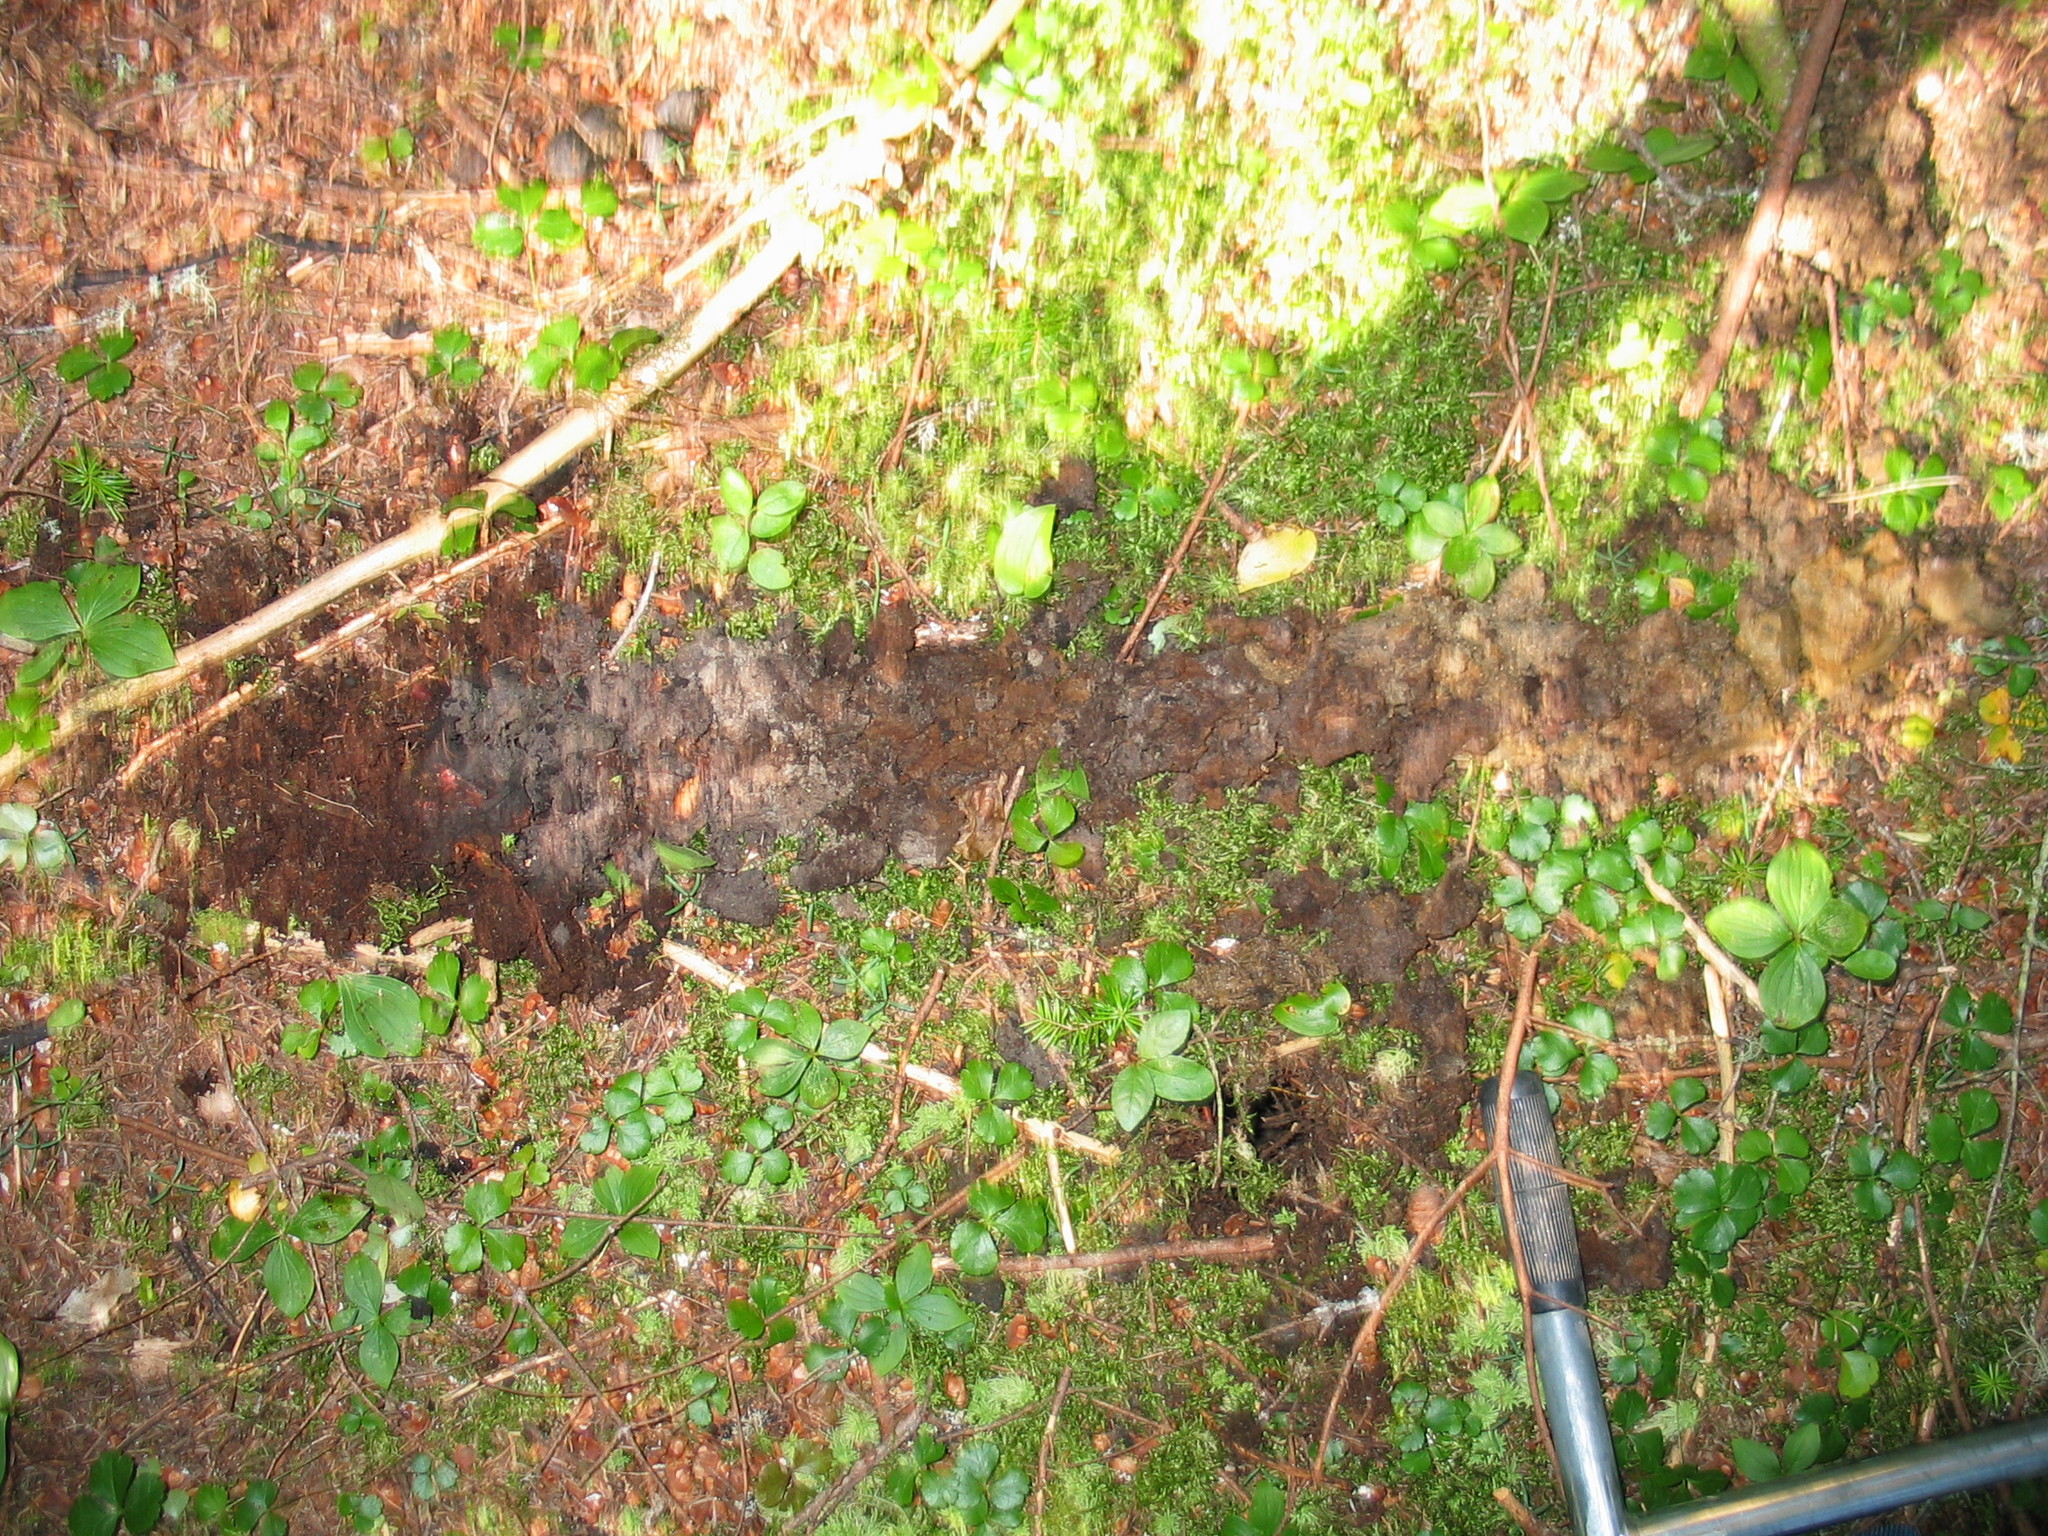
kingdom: Plantae
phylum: Tracheophyta
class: Liliopsida
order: Asparagales
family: Asparagaceae
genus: Maianthemum
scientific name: Maianthemum canadense
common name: False lily-of-the-valley
